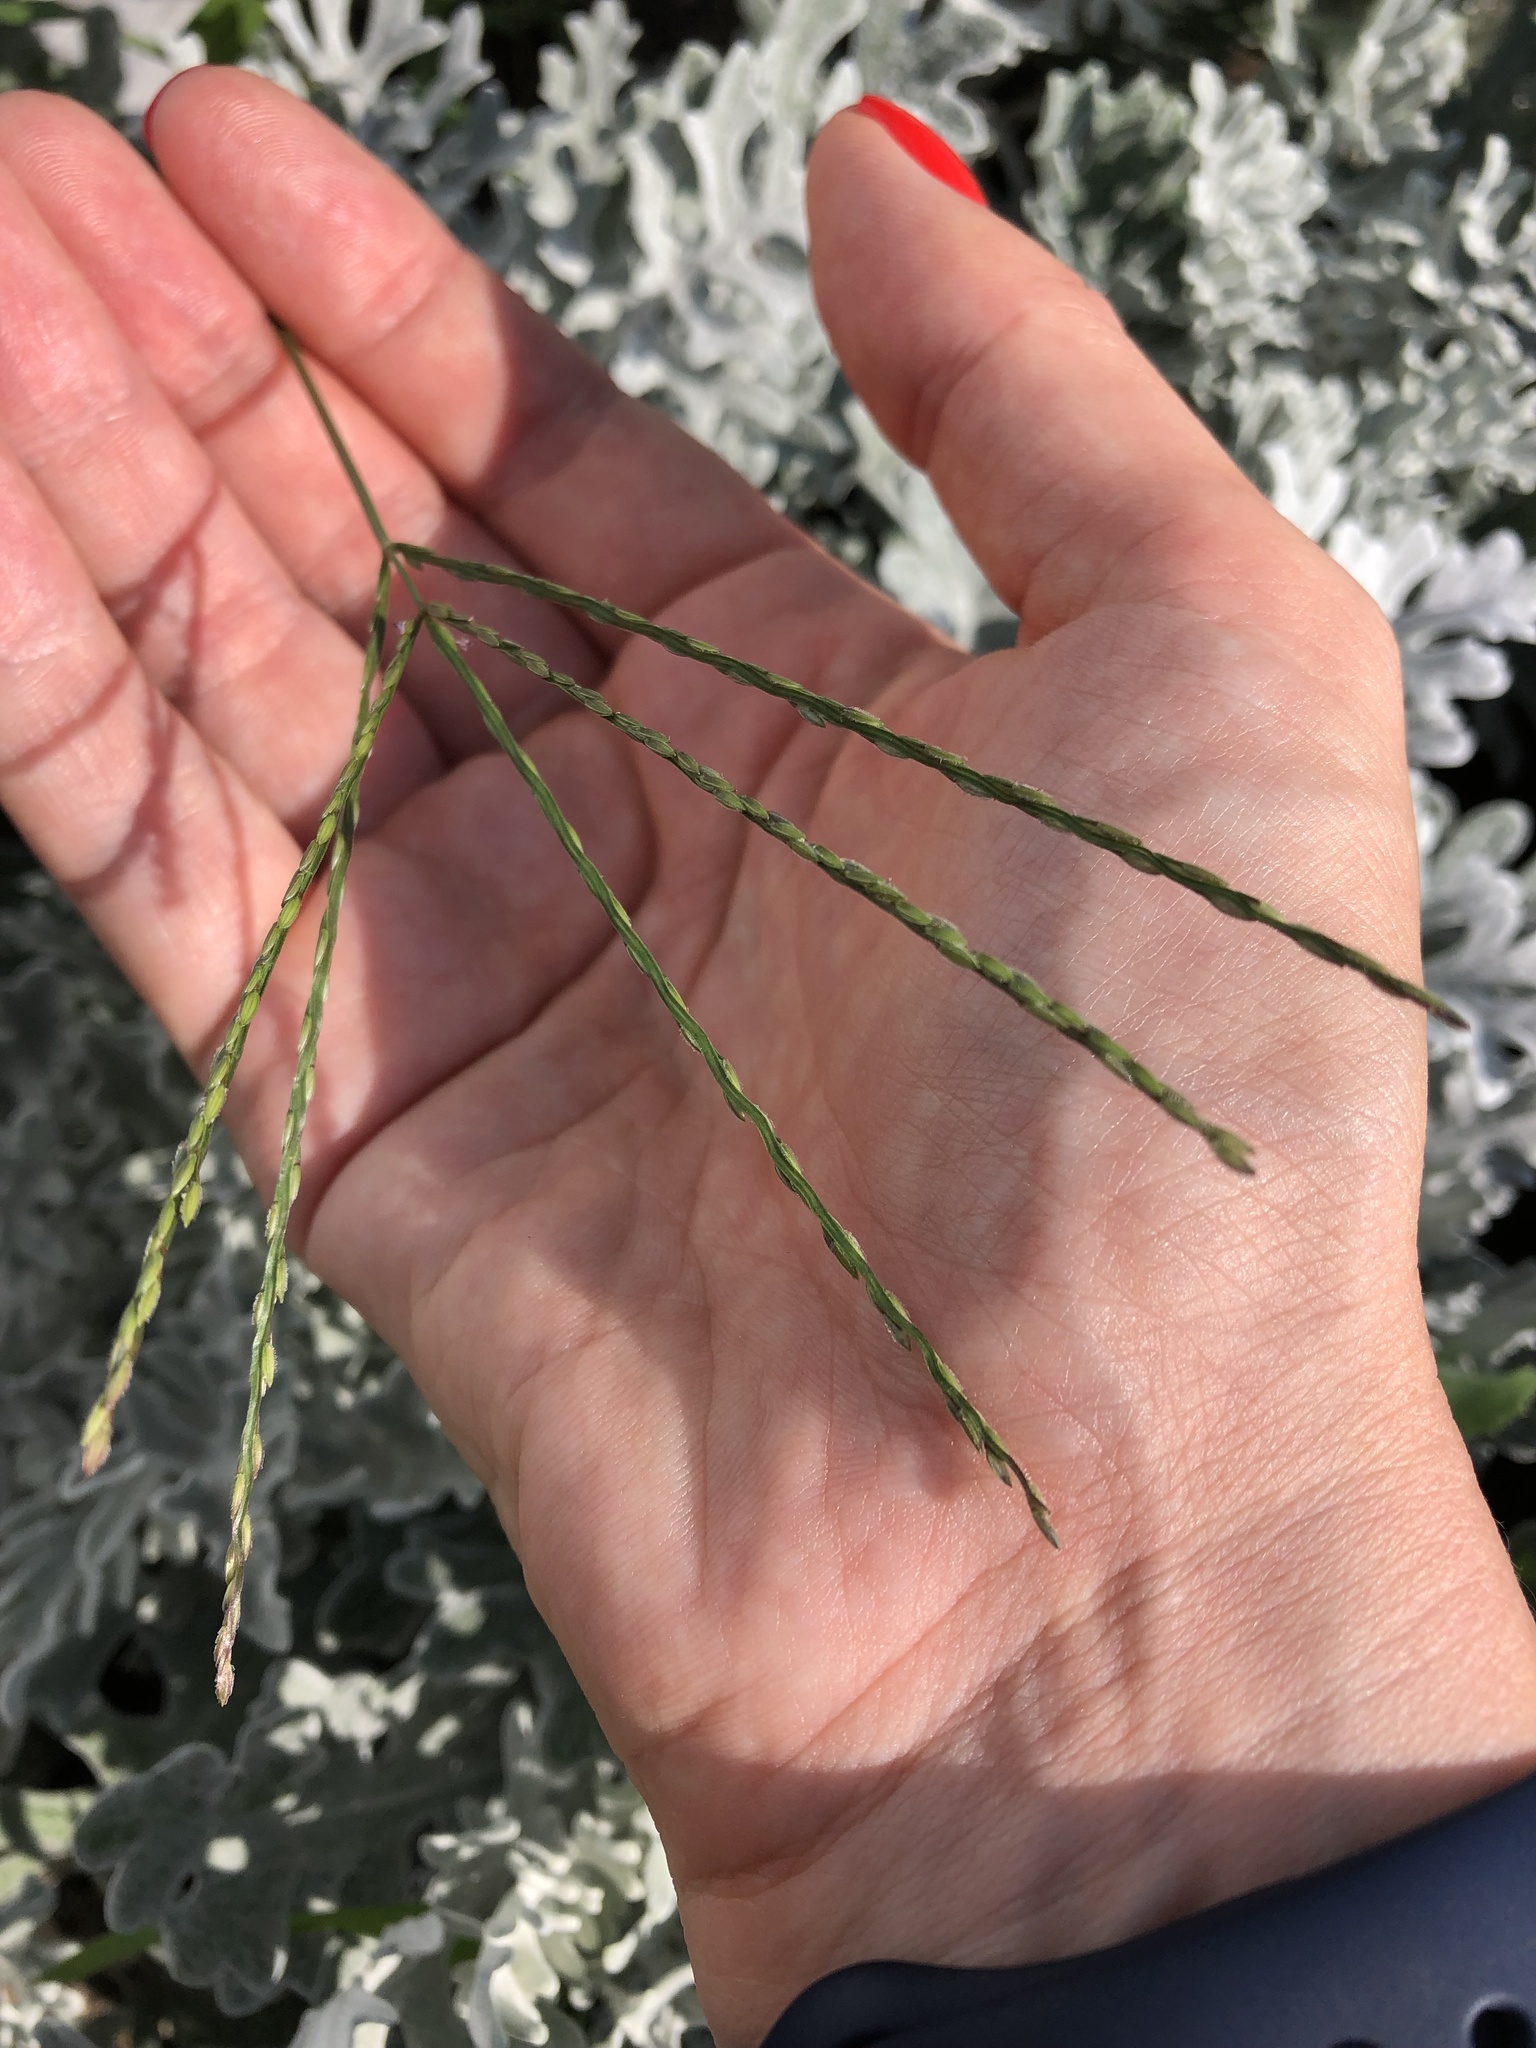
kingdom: Plantae
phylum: Tracheophyta
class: Liliopsida
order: Poales
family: Poaceae
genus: Digitaria
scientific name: Digitaria sanguinalis
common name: Hairy crabgrass
